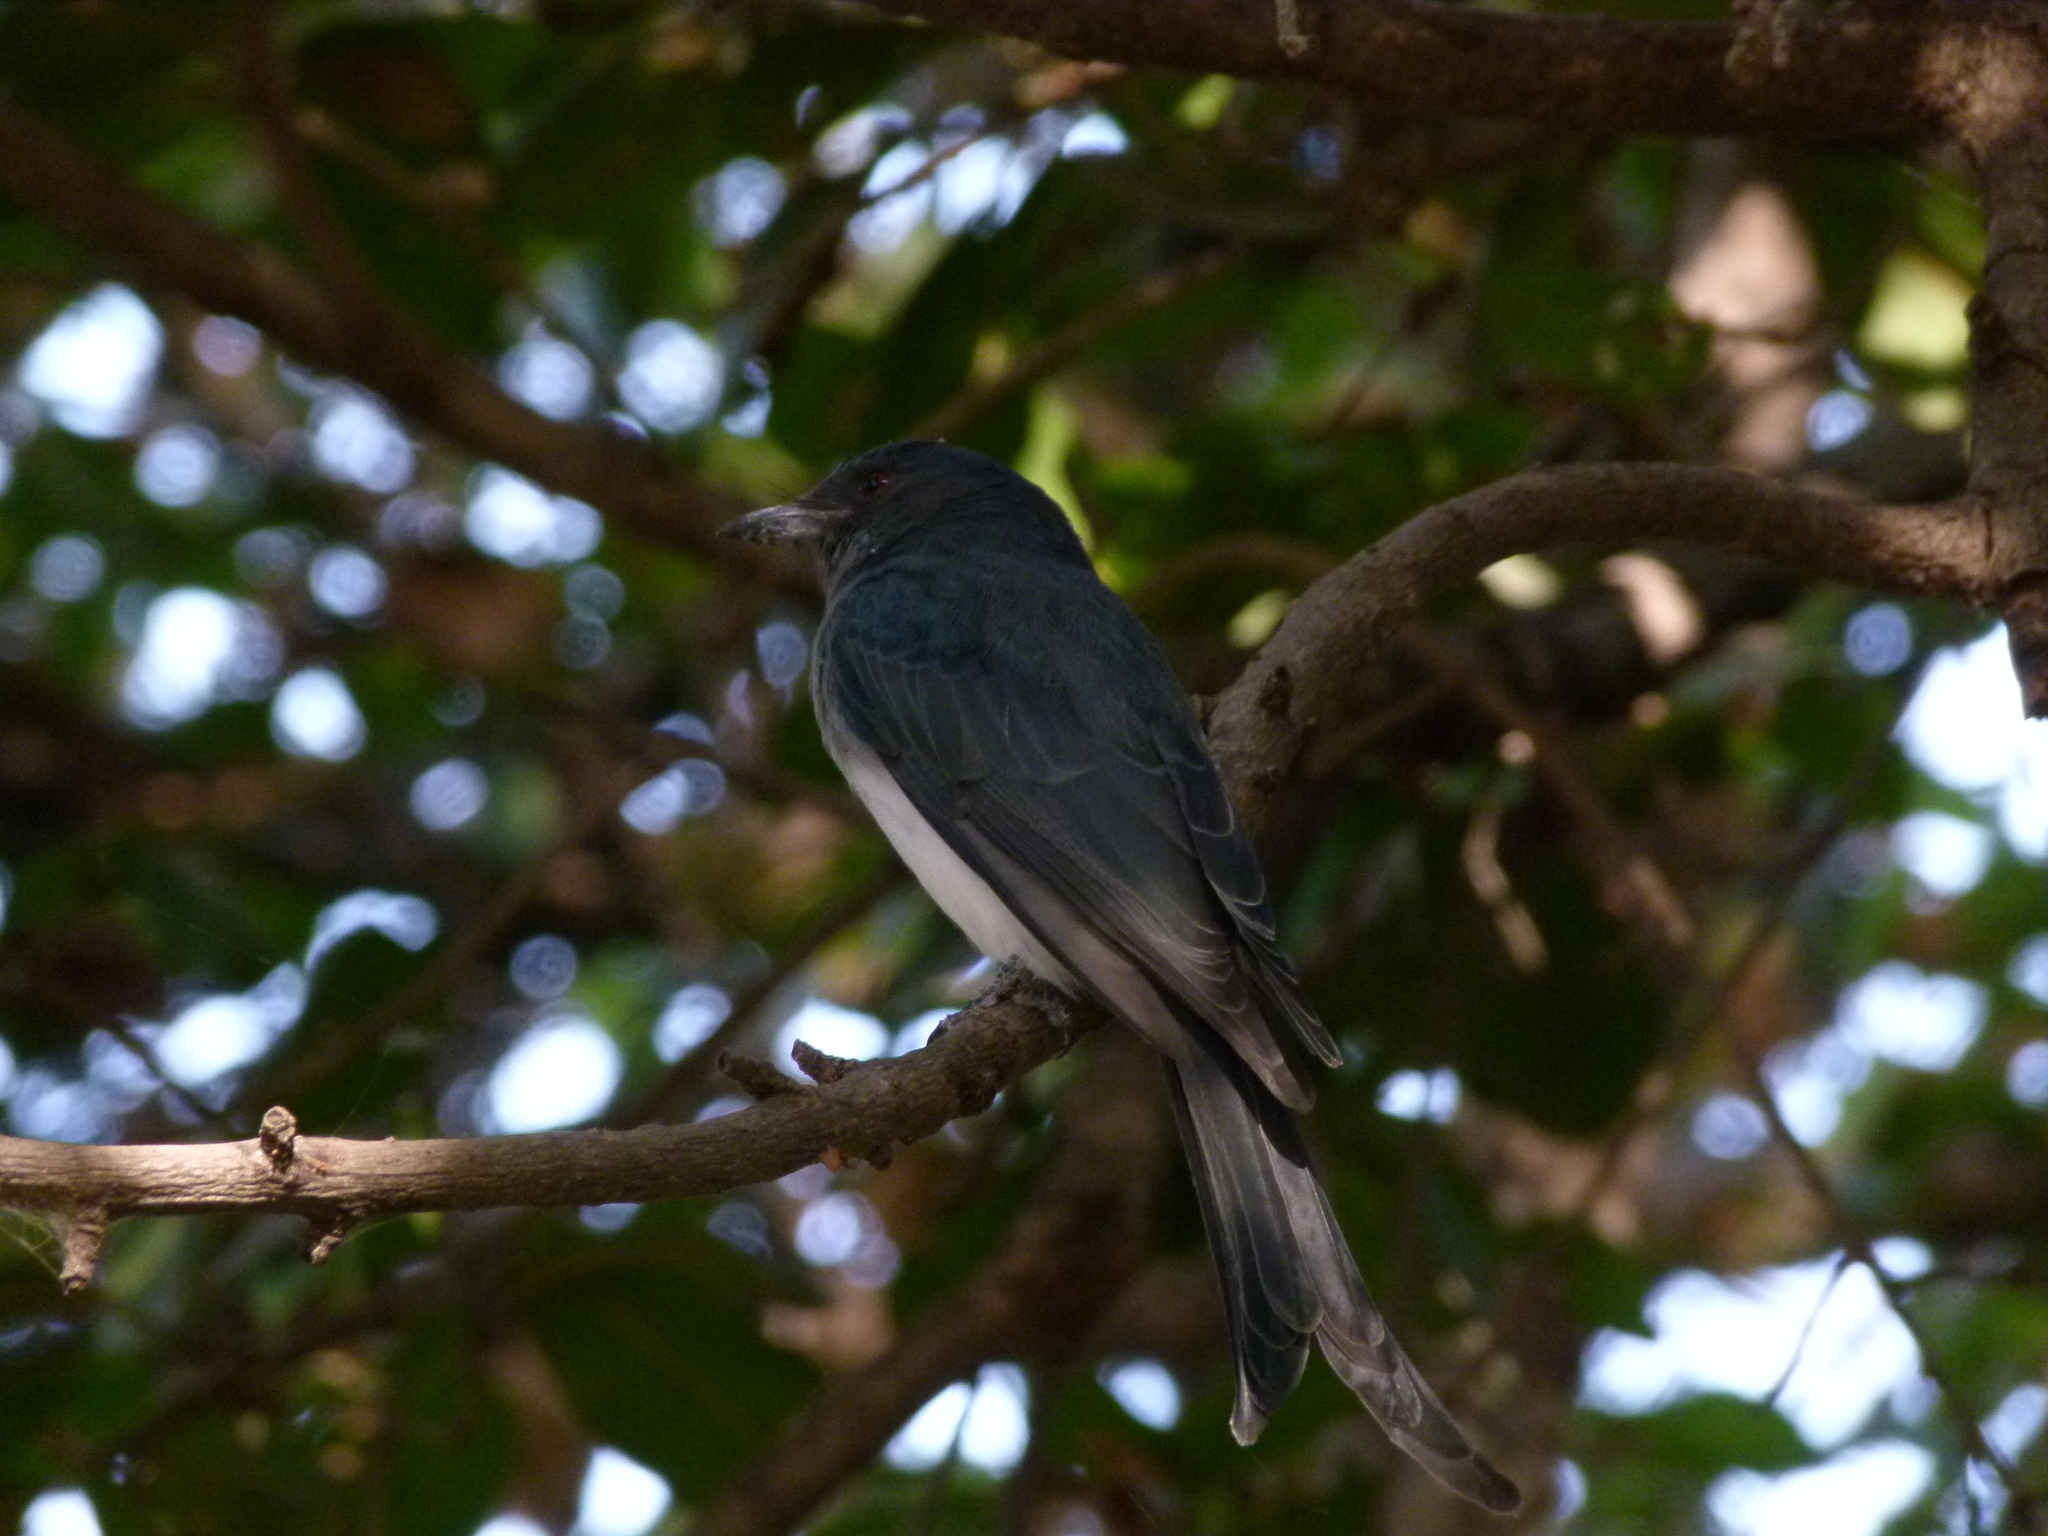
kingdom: Animalia
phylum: Chordata
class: Aves
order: Passeriformes
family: Dicruridae
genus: Dicrurus
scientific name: Dicrurus caerulescens
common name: White-bellied drongo
